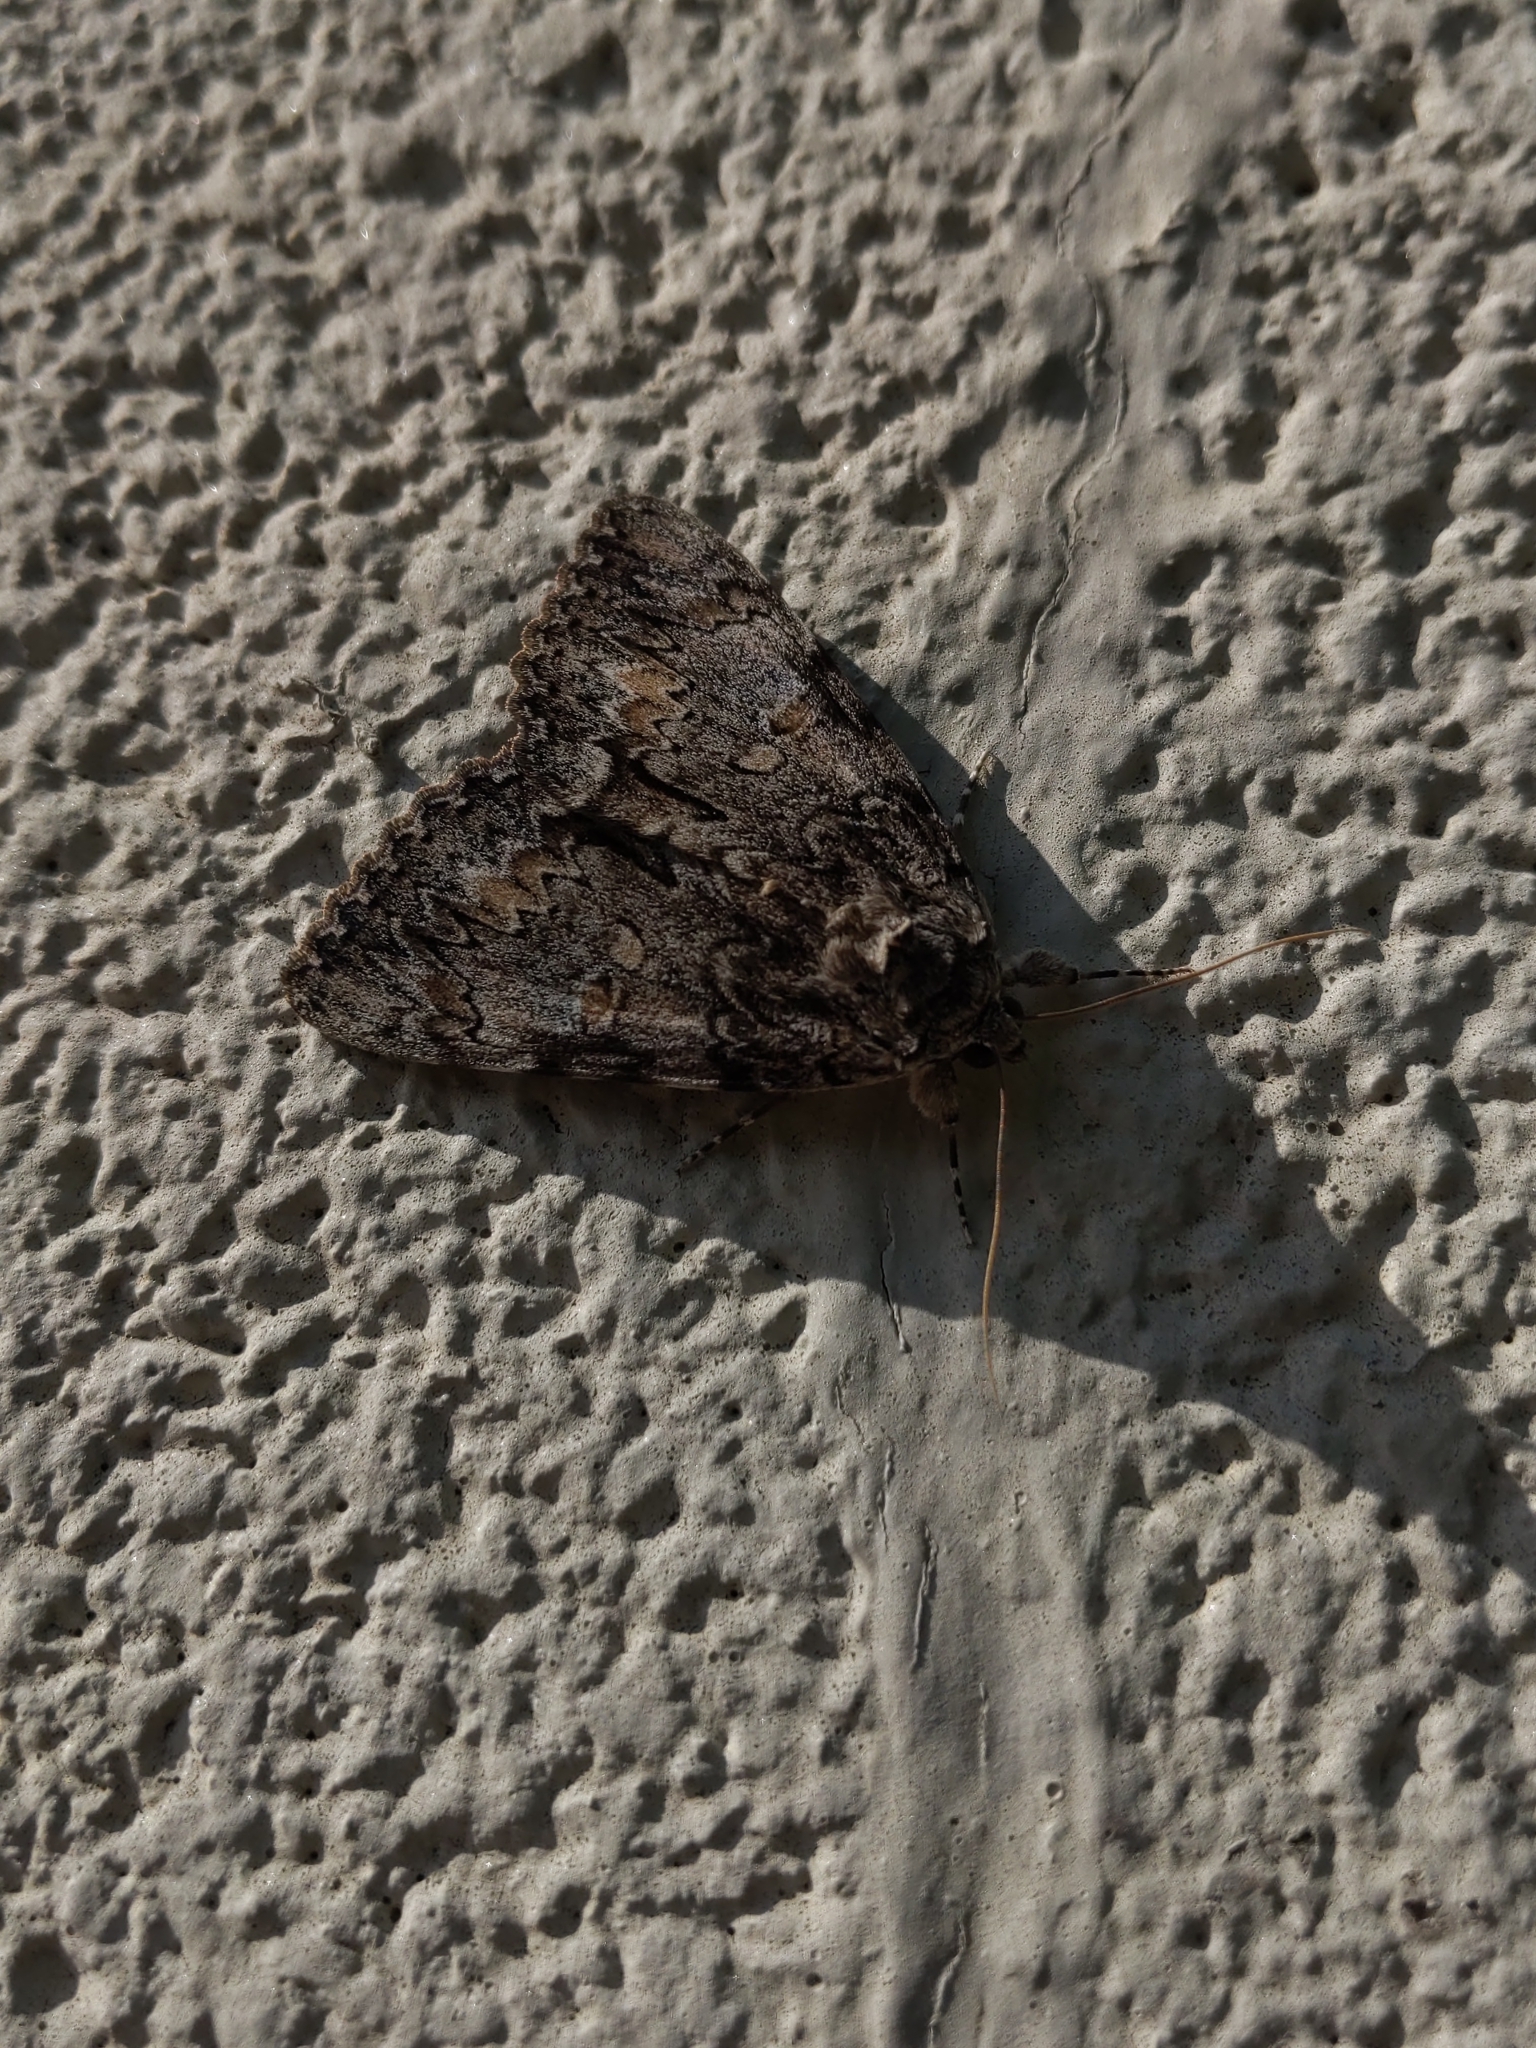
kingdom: Animalia
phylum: Arthropoda
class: Insecta
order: Lepidoptera
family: Erebidae
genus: Catocala
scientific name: Catocala palaeogama
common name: Oldwife underwing
